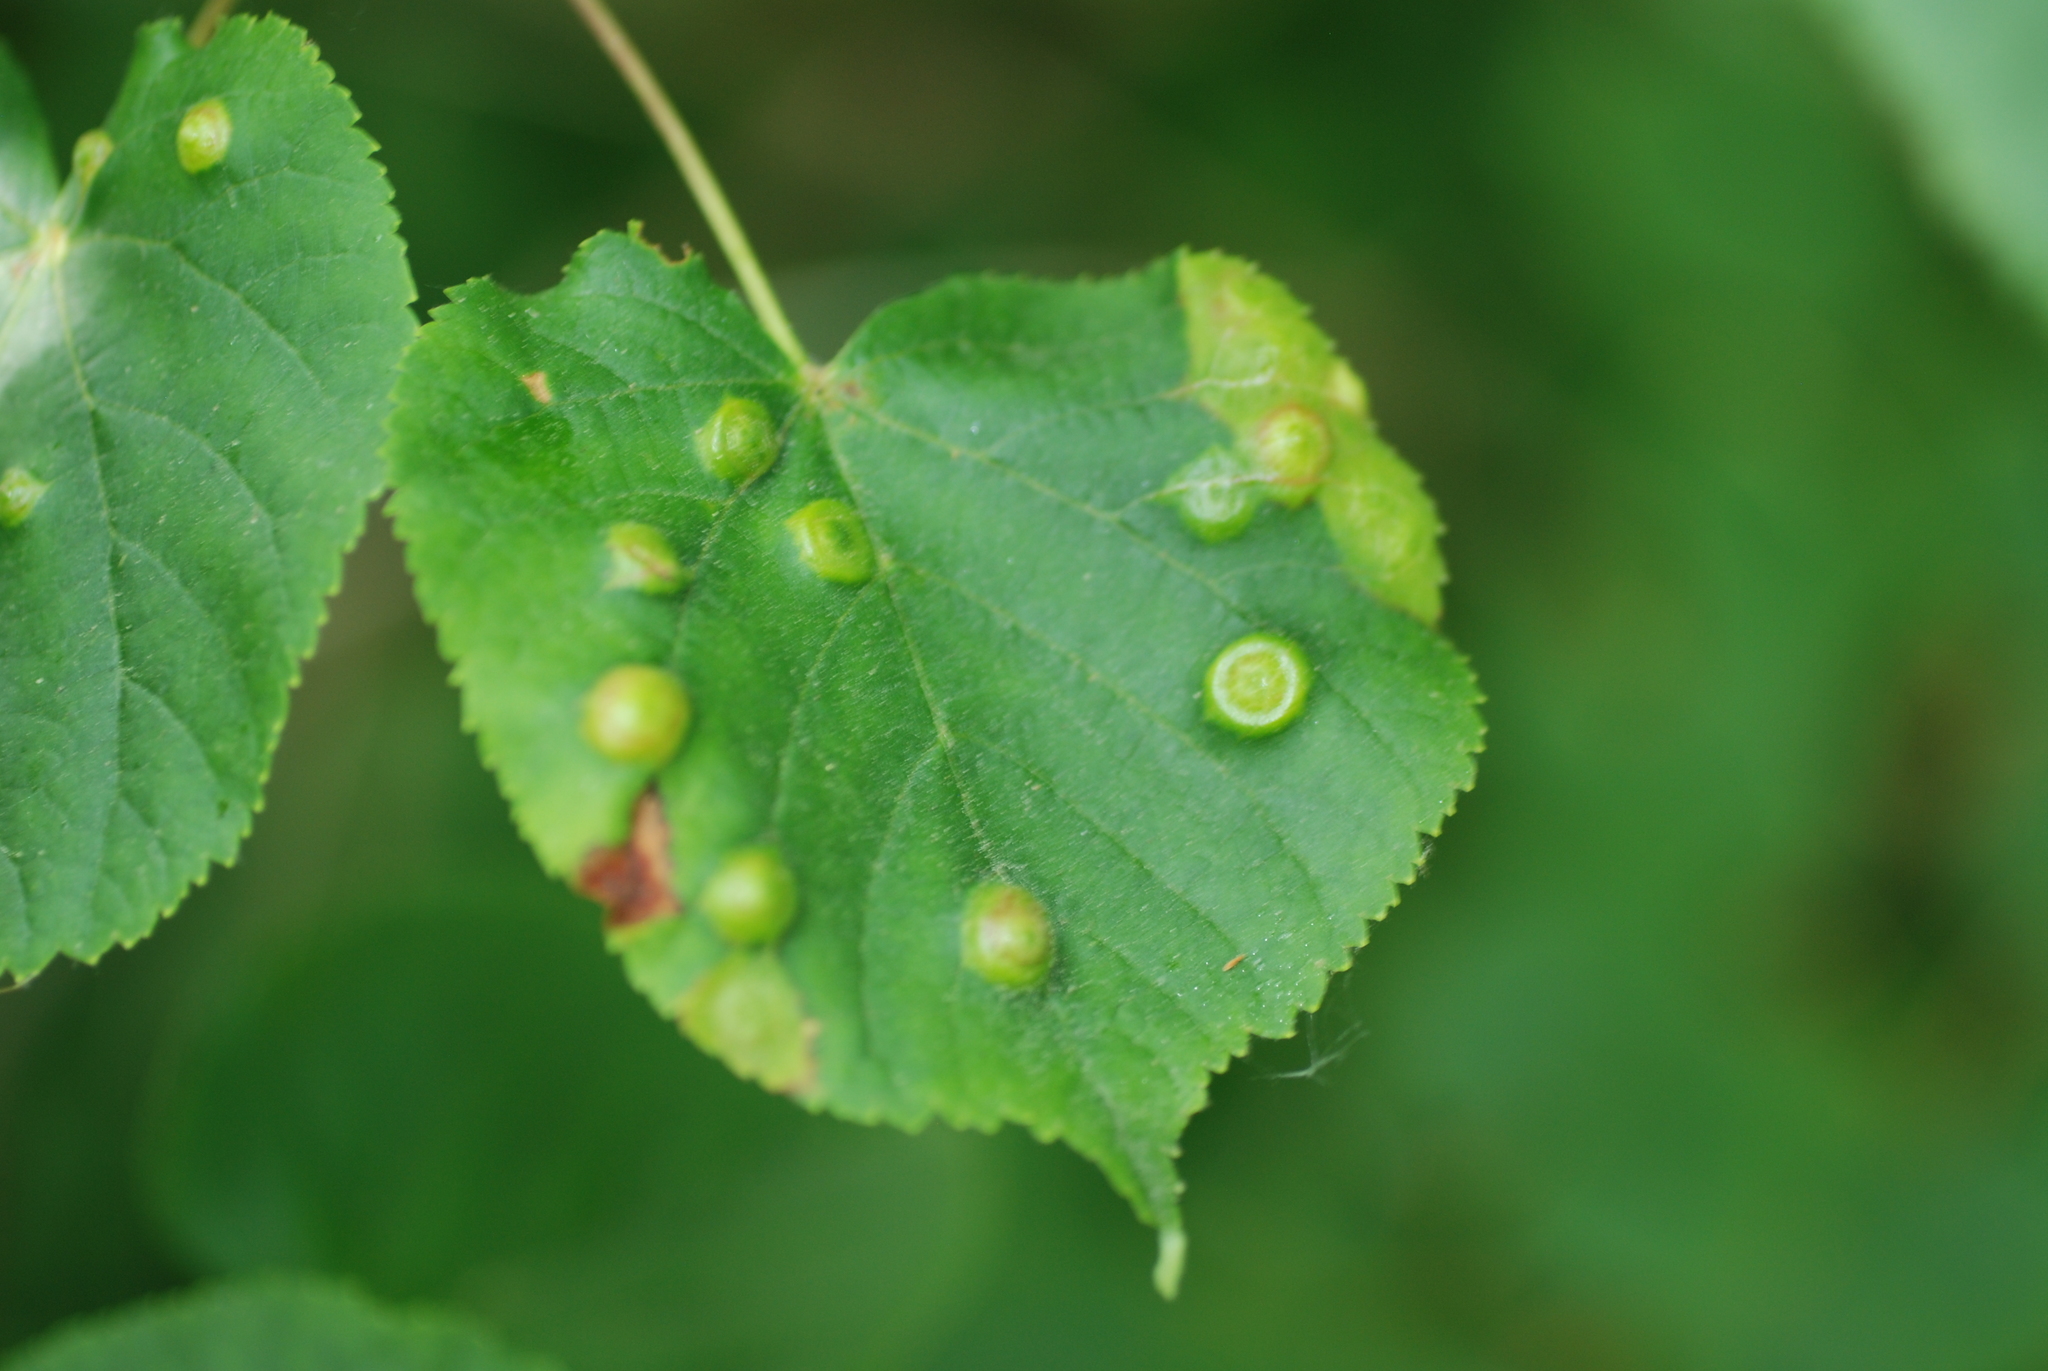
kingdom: Animalia
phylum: Arthropoda
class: Insecta
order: Diptera
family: Cecidomyiidae
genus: Didymomyia
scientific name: Didymomyia tiliacea
